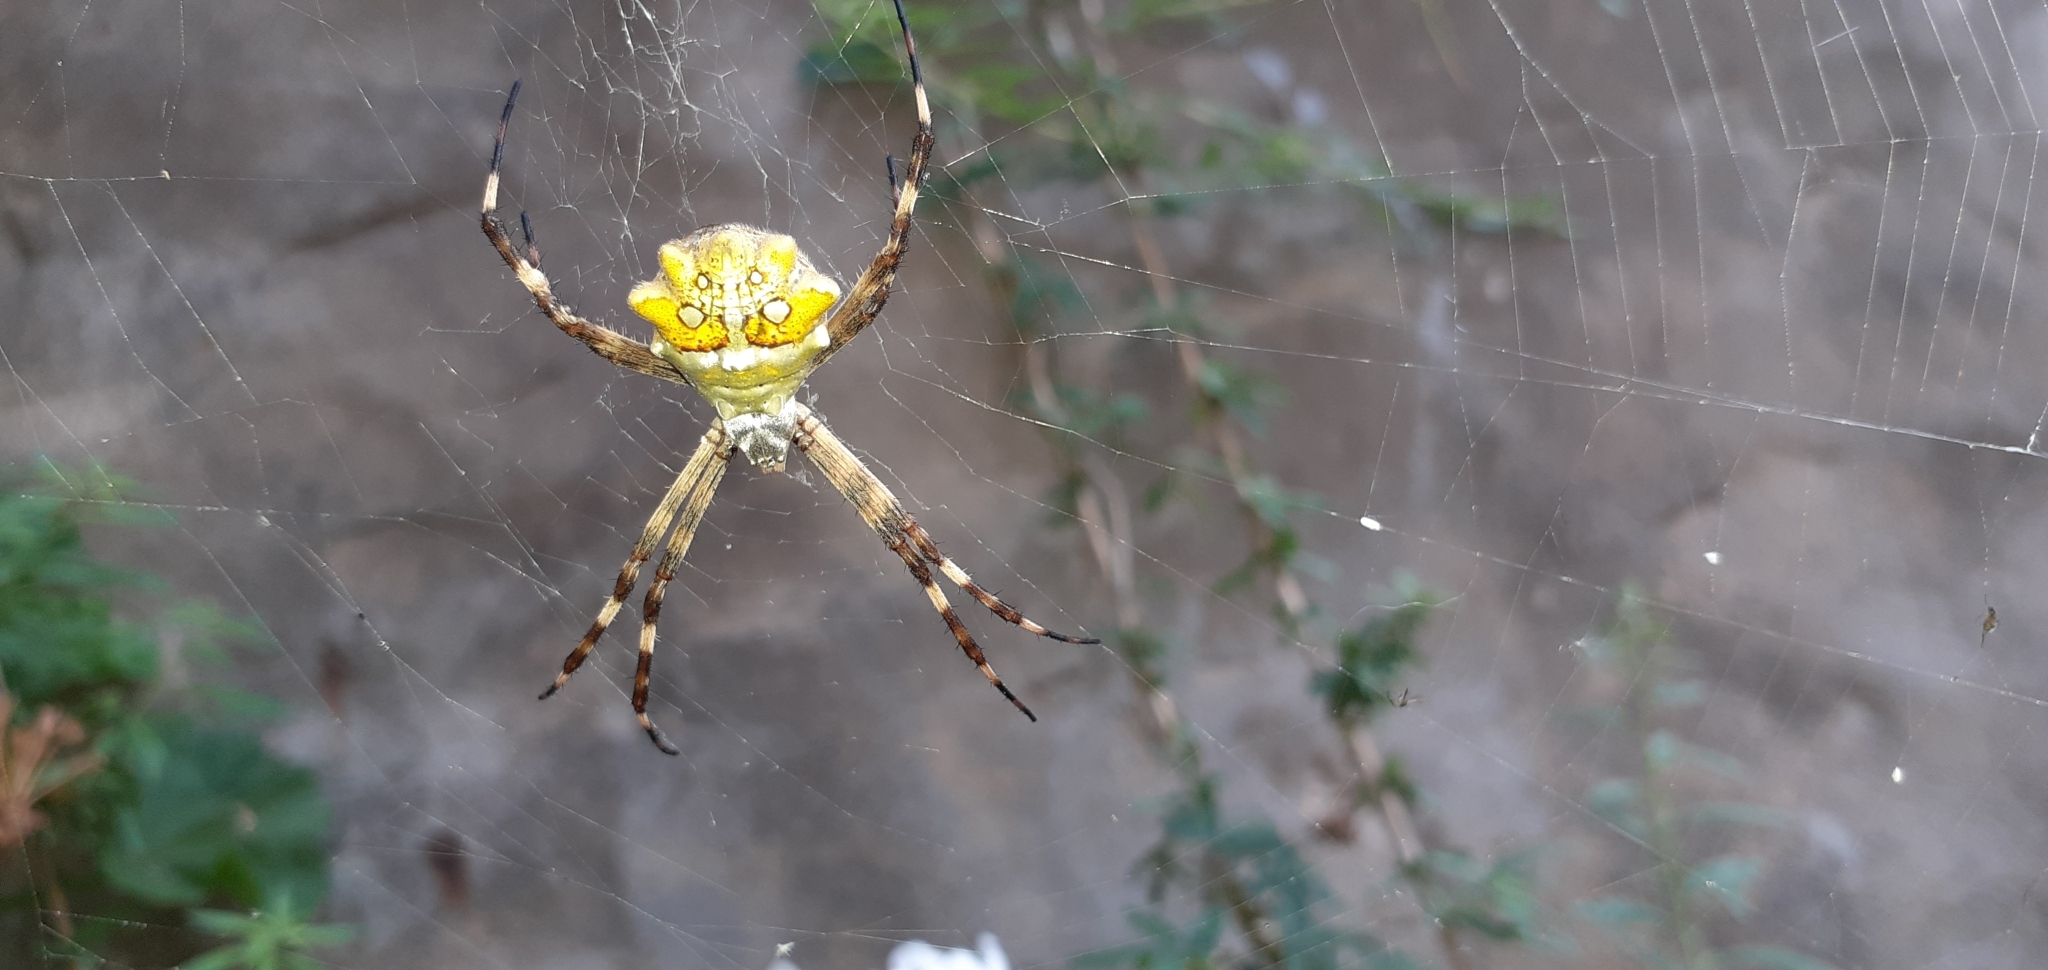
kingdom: Animalia
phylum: Arthropoda
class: Arachnida
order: Araneae
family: Araneidae
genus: Argiope
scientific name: Argiope argentata
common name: Orb weavers
